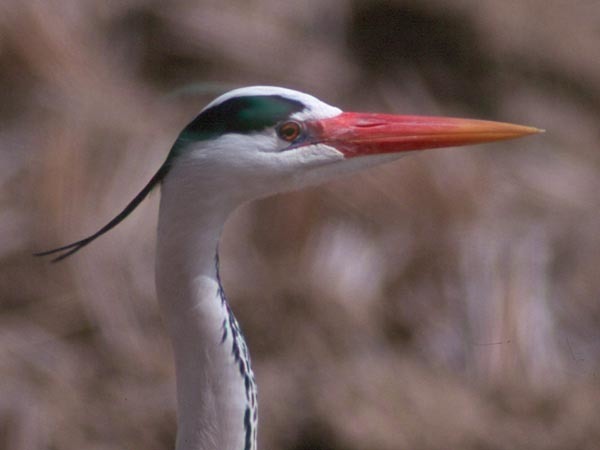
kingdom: Animalia
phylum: Chordata
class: Aves
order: Pelecaniformes
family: Ardeidae
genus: Ardea
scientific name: Ardea cinerea
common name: Grey heron
